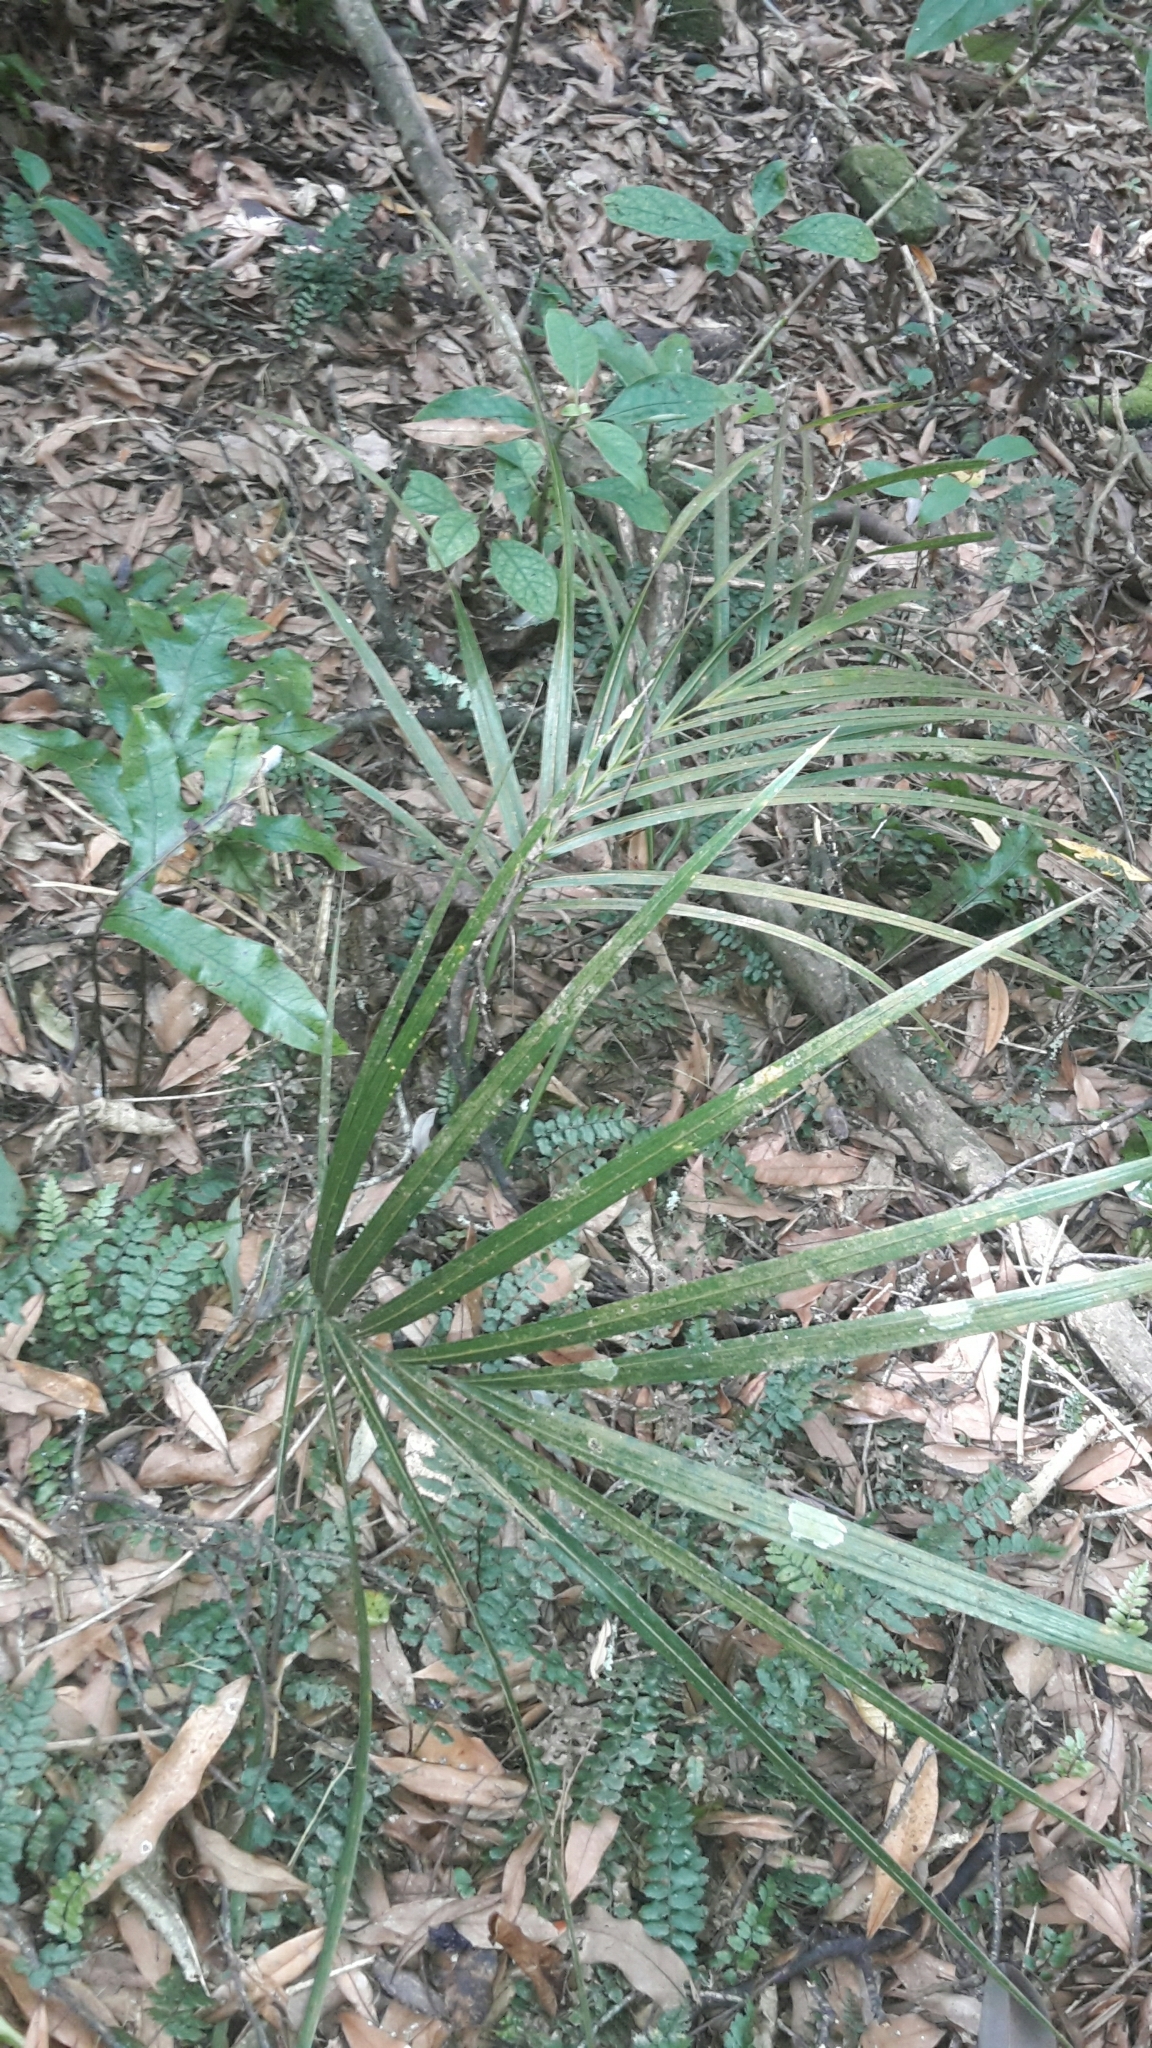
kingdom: Plantae
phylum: Tracheophyta
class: Liliopsida
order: Arecales
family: Arecaceae
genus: Rhopalostylis
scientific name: Rhopalostylis sapida
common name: Feather-duster palm
